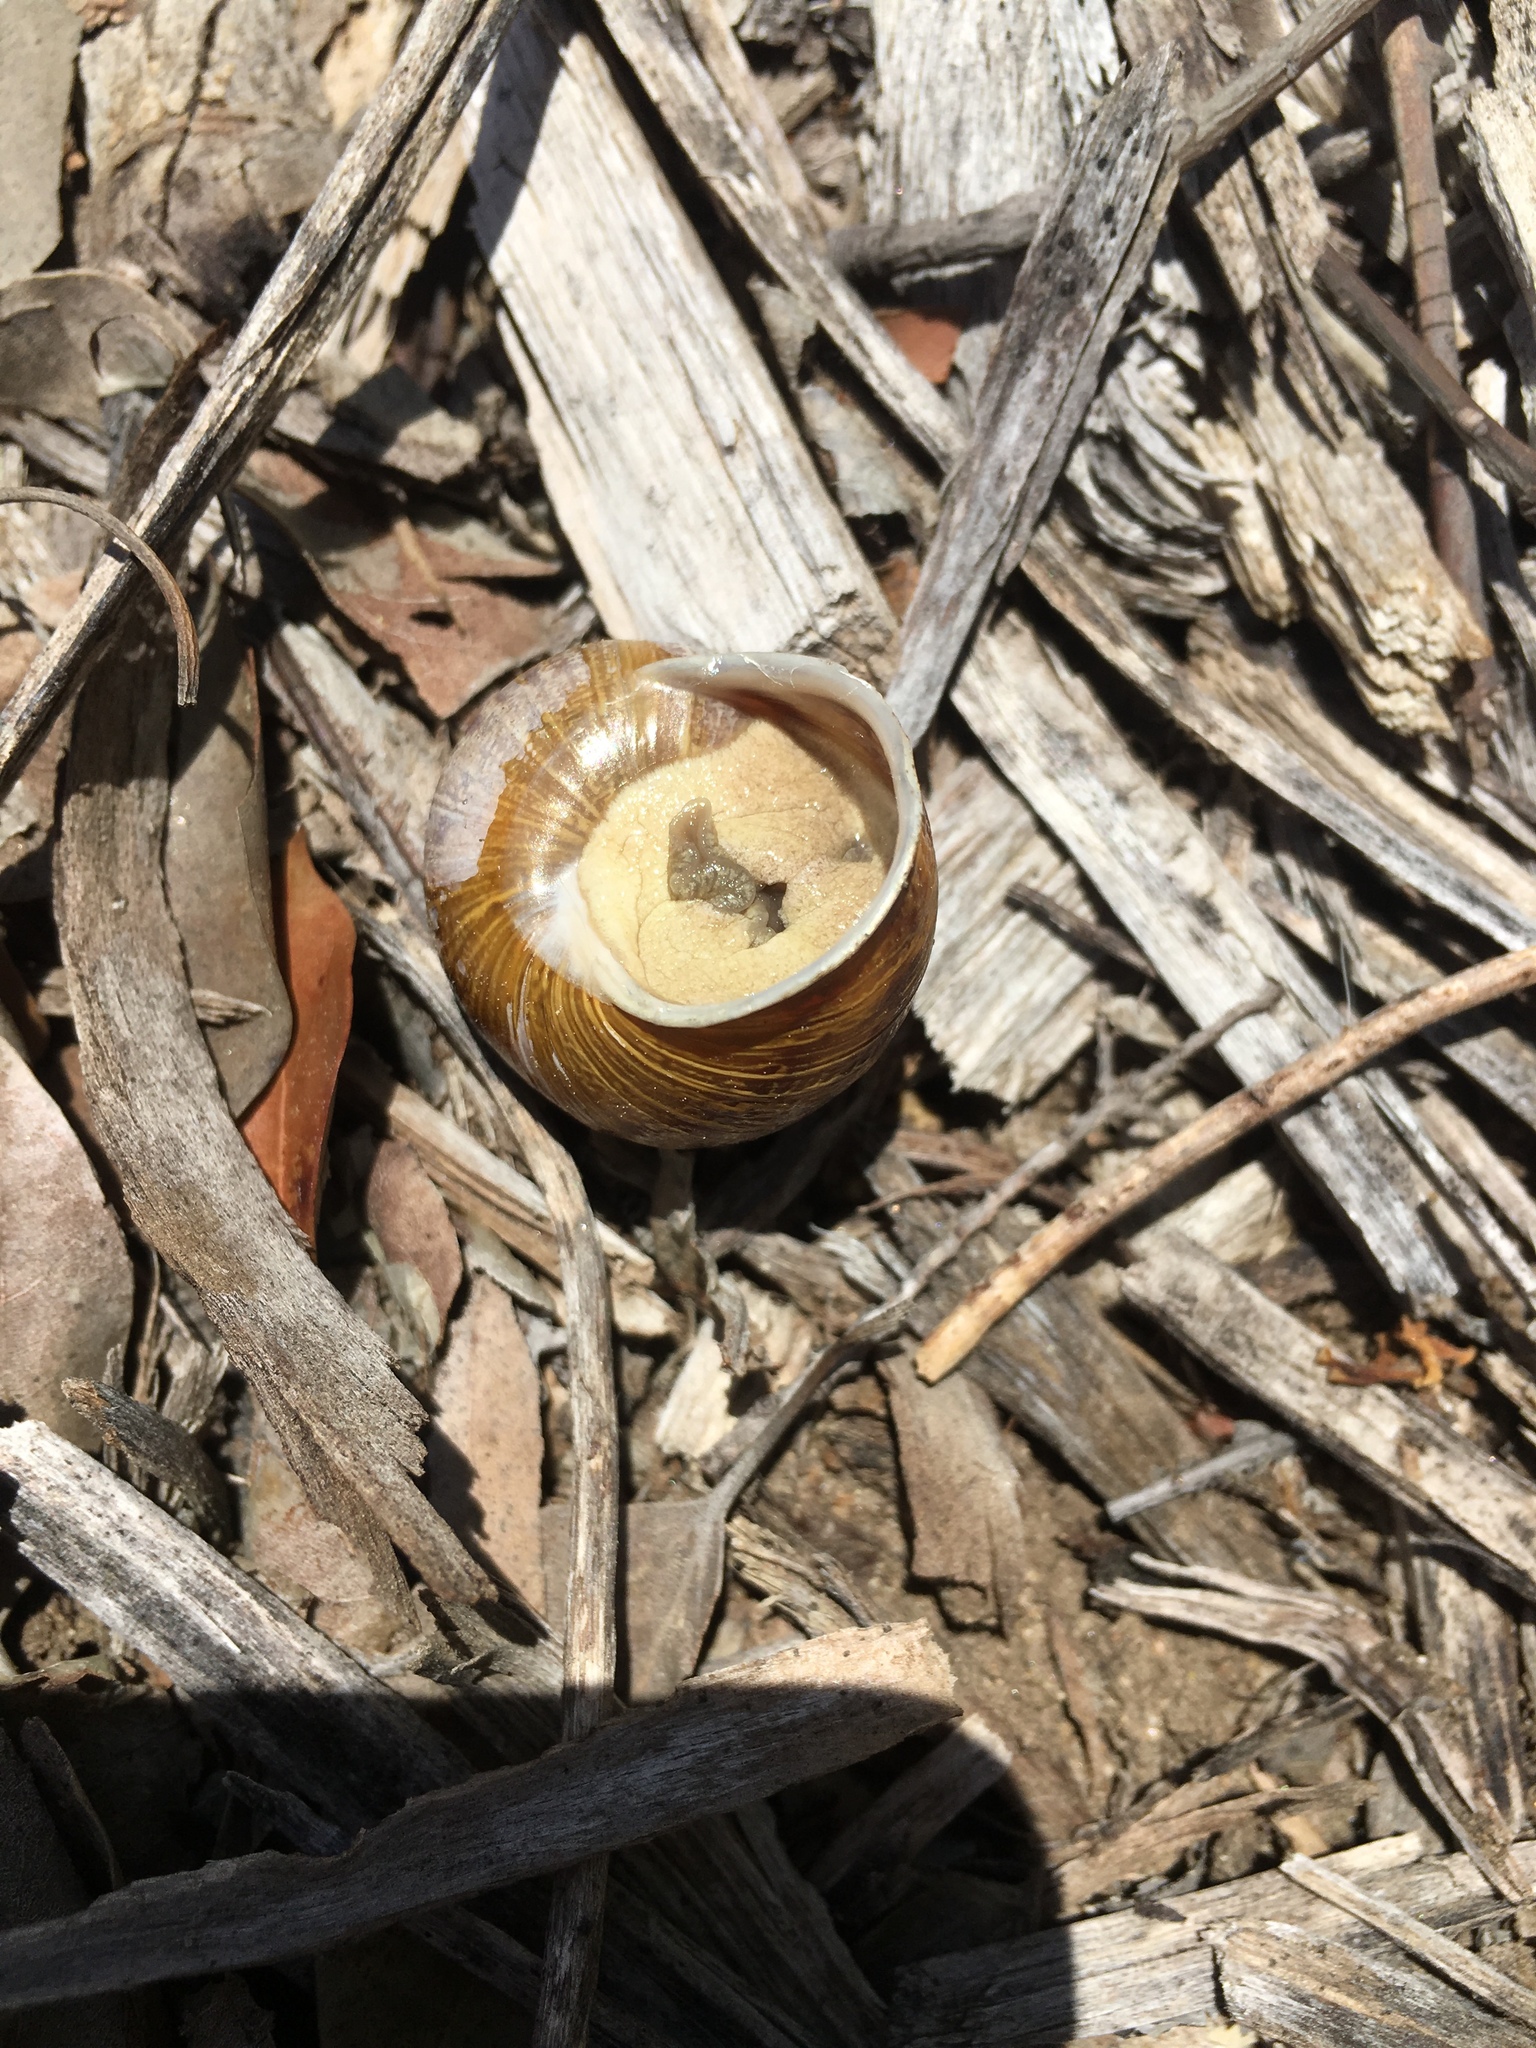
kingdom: Animalia
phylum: Mollusca
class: Gastropoda
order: Stylommatophora
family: Helicidae
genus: Cornu
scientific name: Cornu aspersum
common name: Brown garden snail
